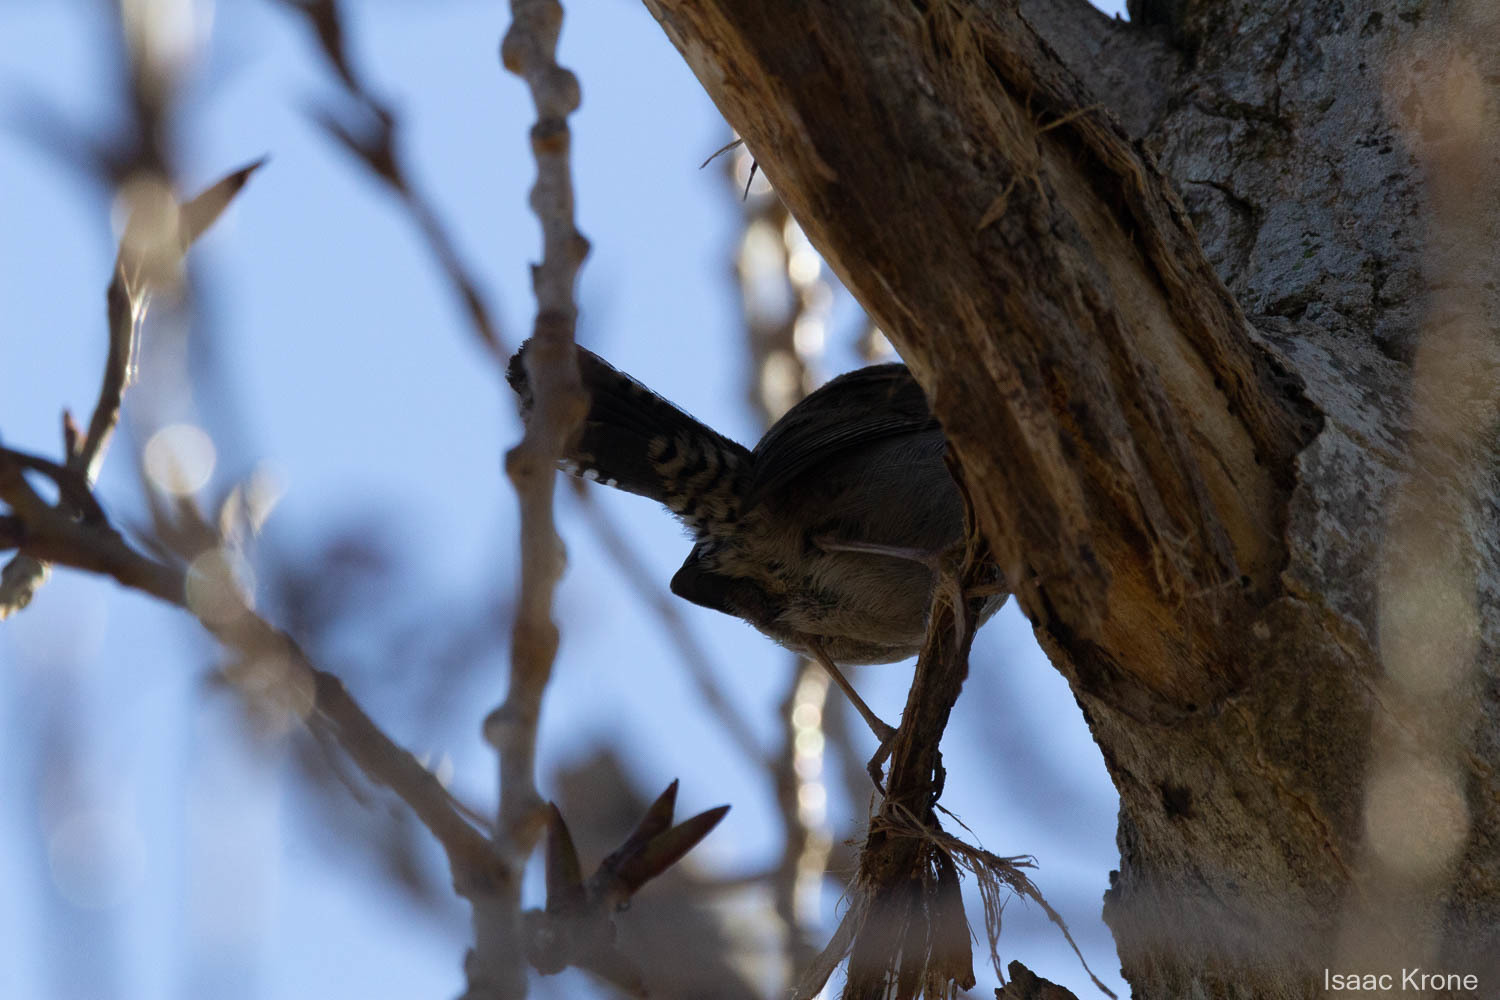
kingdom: Animalia
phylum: Chordata
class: Aves
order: Passeriformes
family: Troglodytidae
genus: Thryomanes
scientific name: Thryomanes bewickii
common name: Bewick's wren
